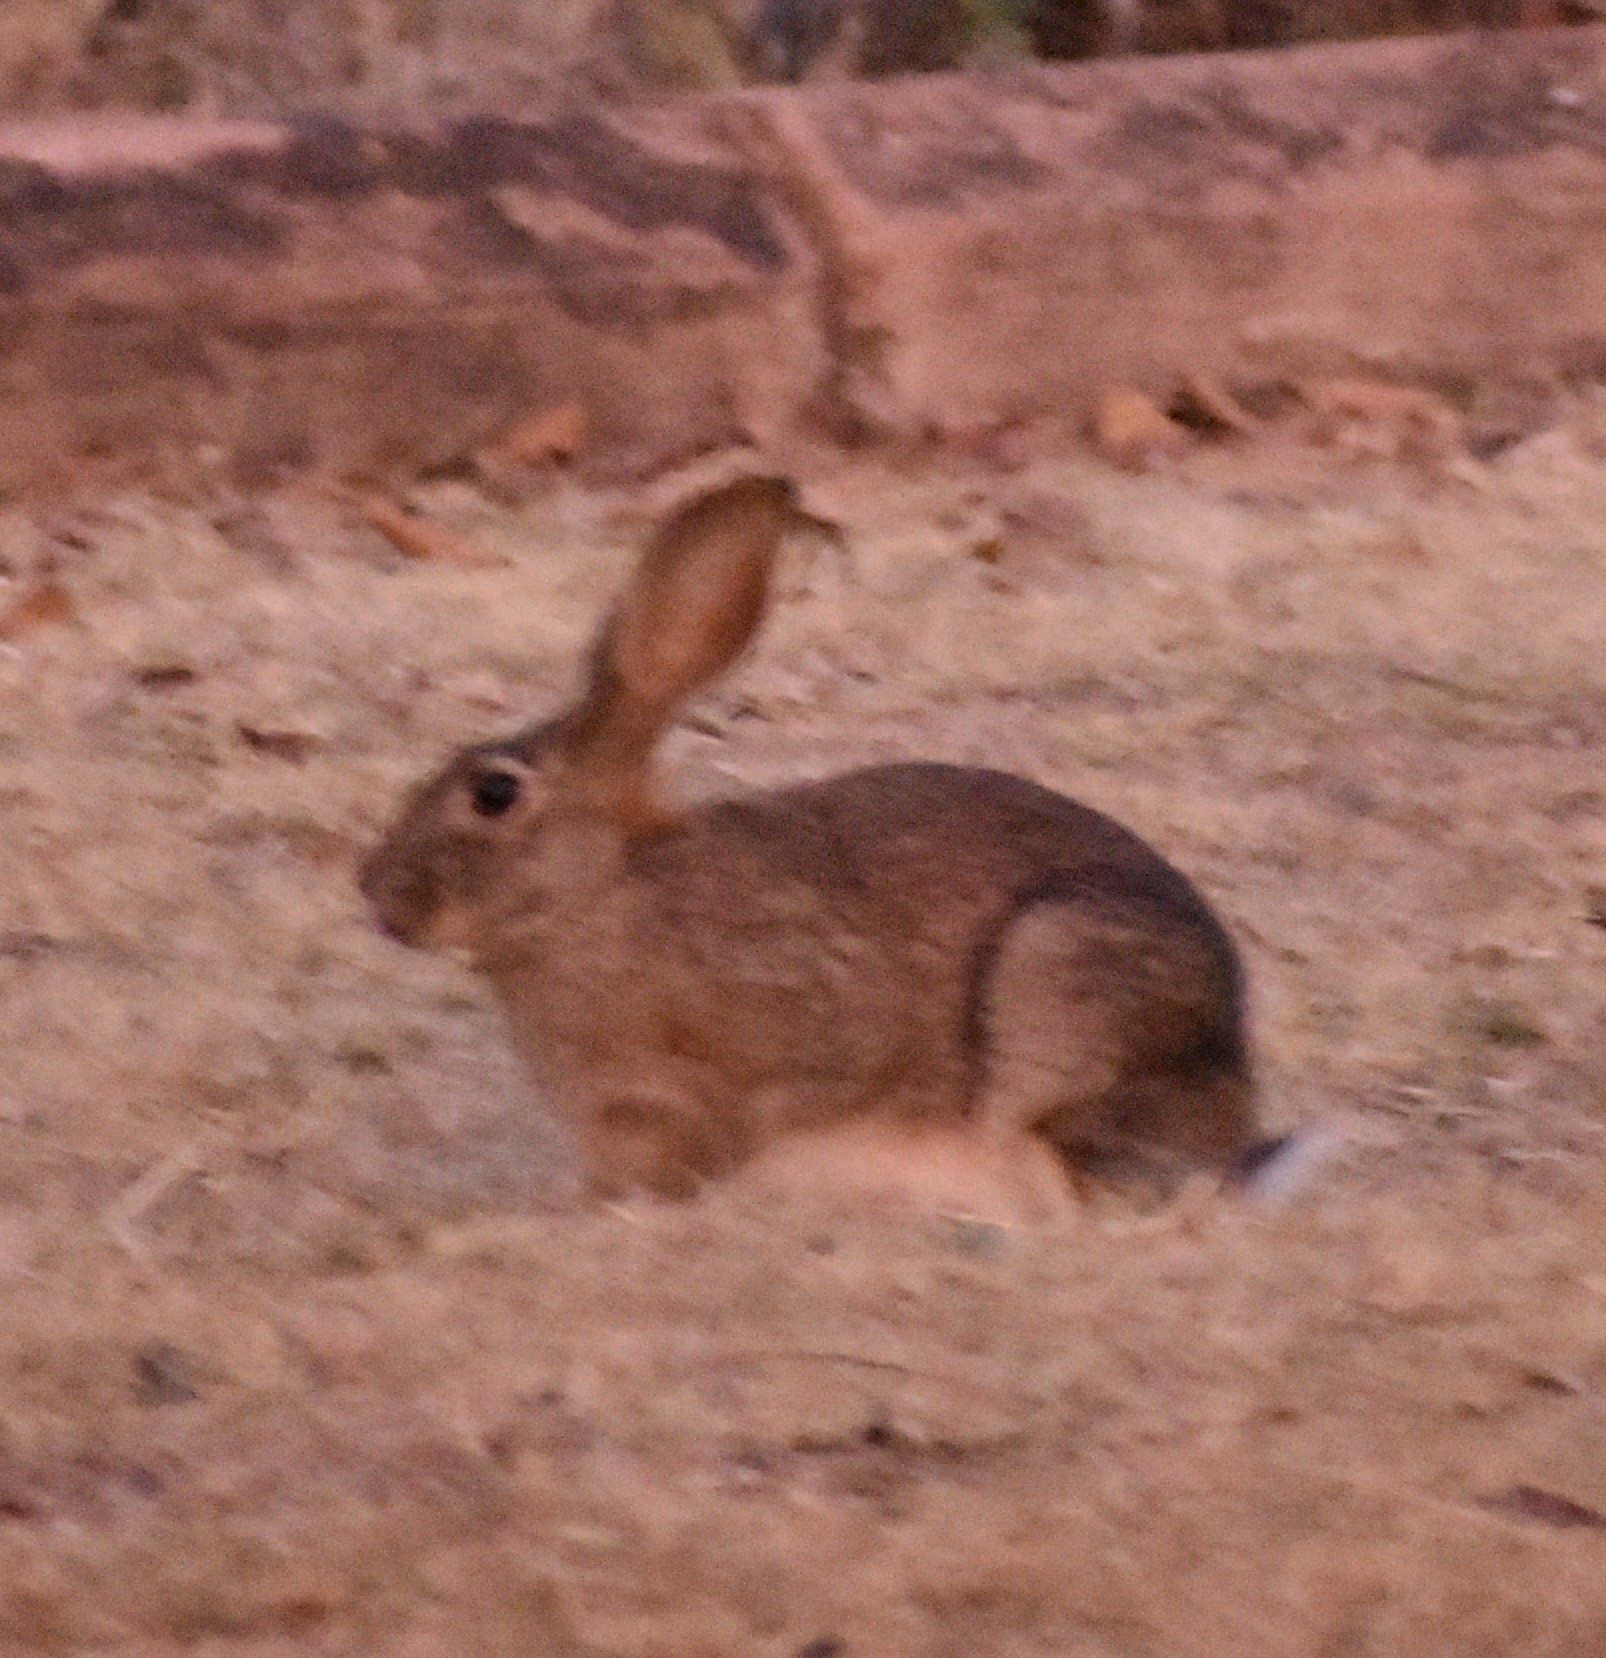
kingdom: Animalia
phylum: Chordata
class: Mammalia
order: Lagomorpha
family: Leporidae
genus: Lepus
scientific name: Lepus saxatilis
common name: Scrub hare
